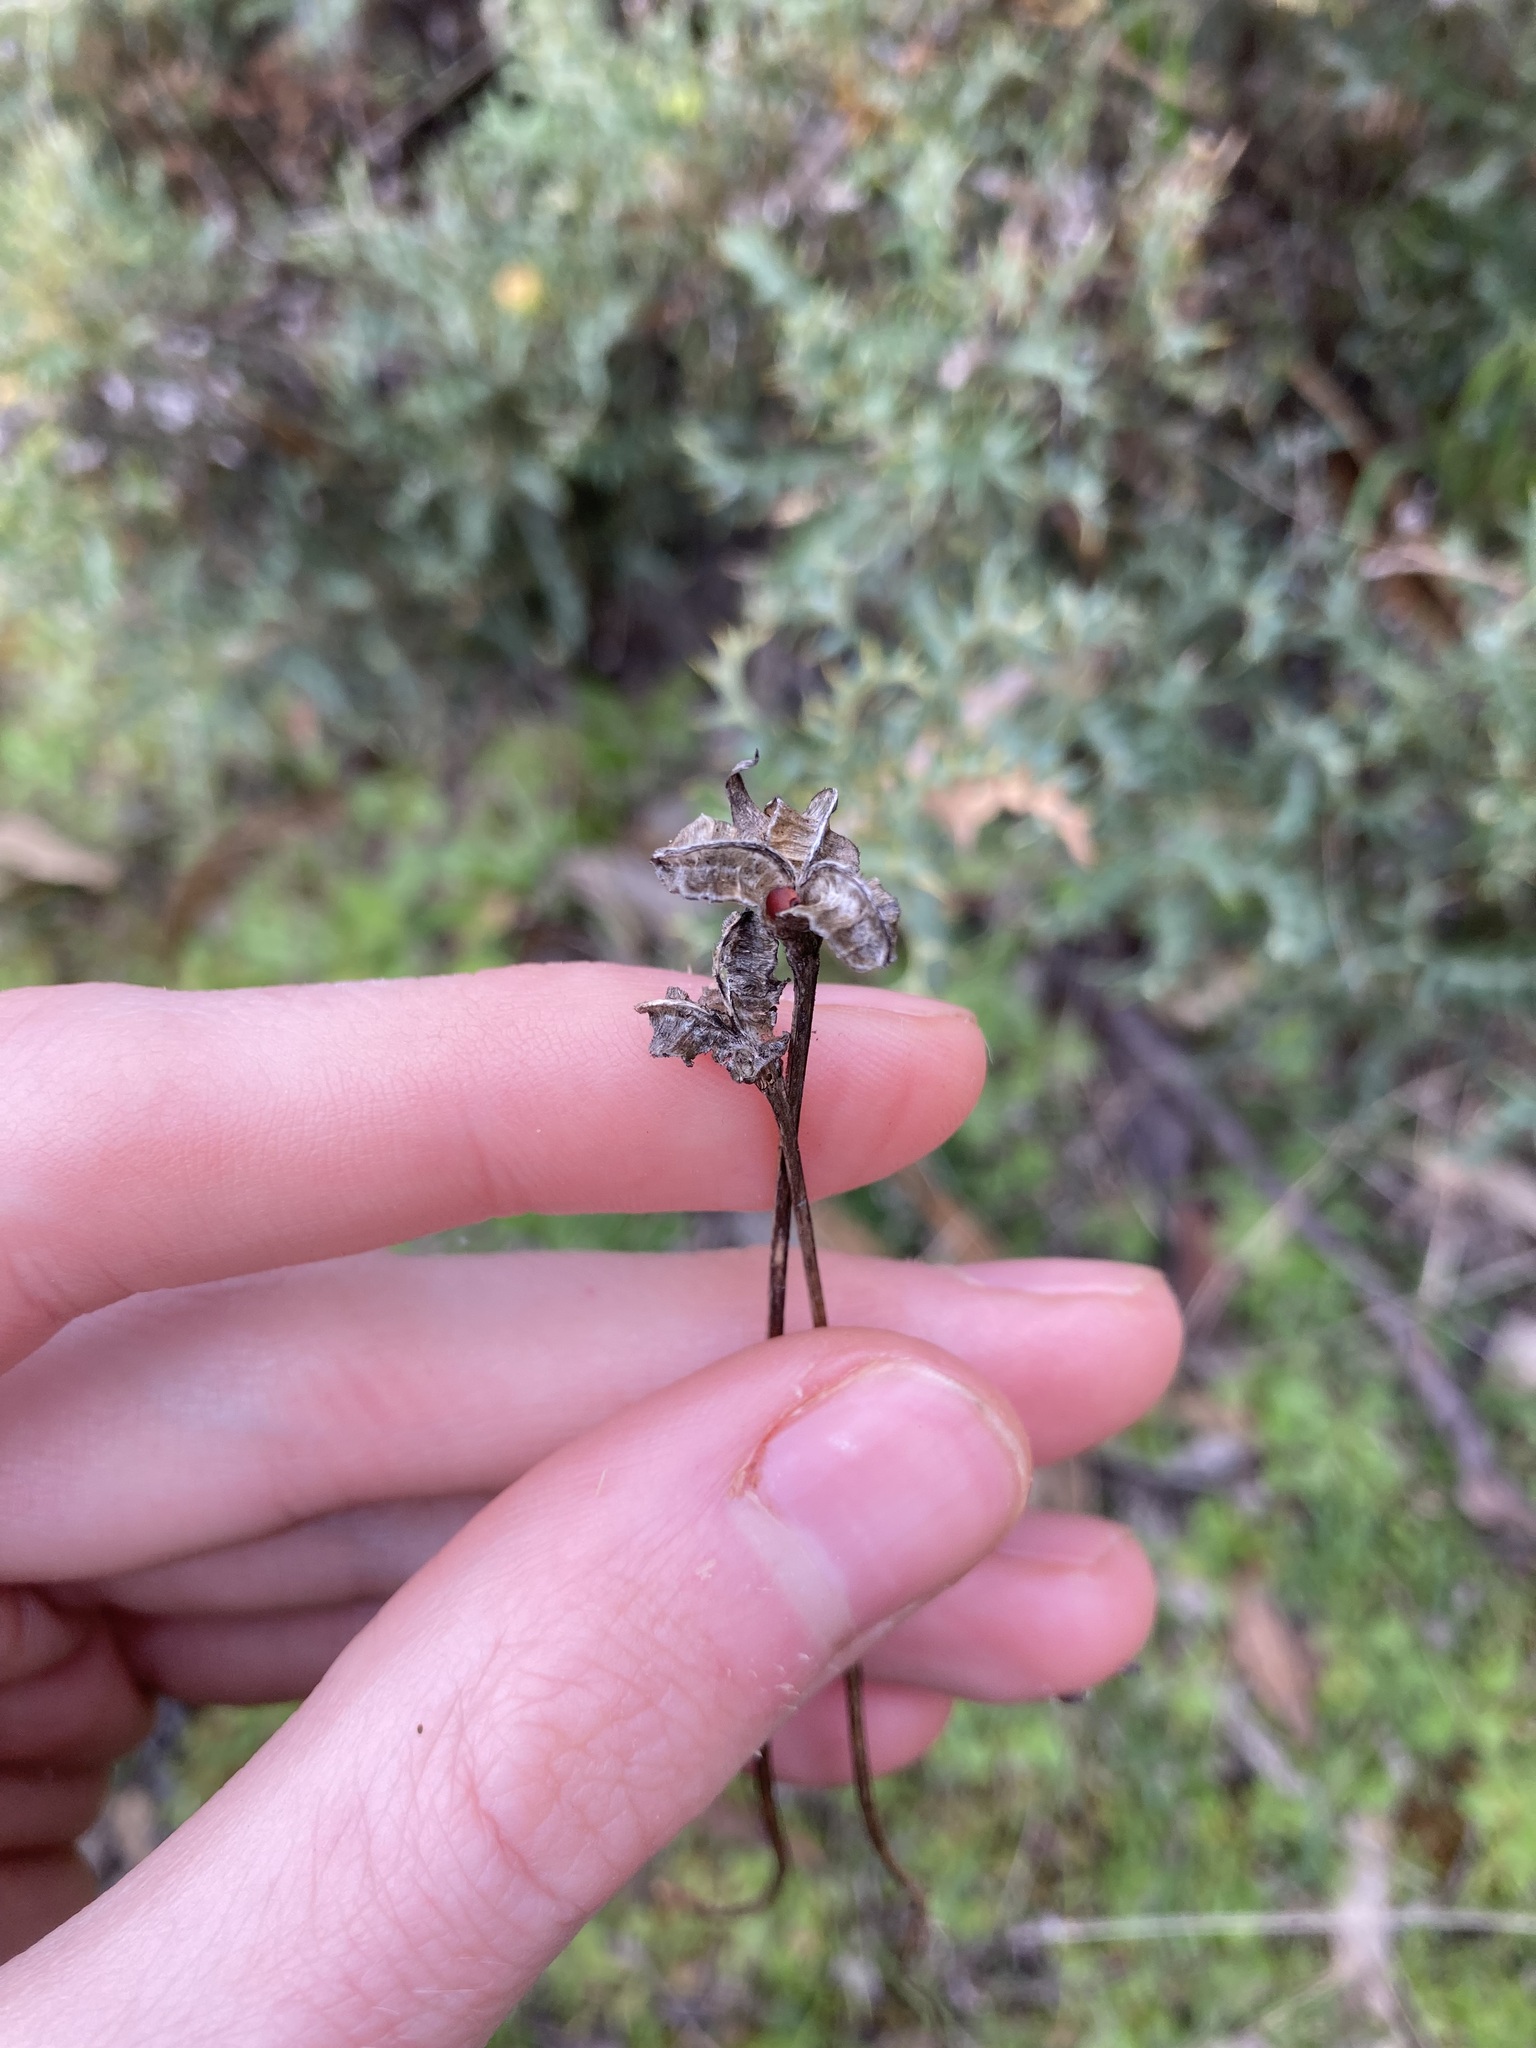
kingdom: Plantae
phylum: Tracheophyta
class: Liliopsida
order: Asparagales
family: Iridaceae
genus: Romulea
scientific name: Romulea rosea
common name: Oniongrass
